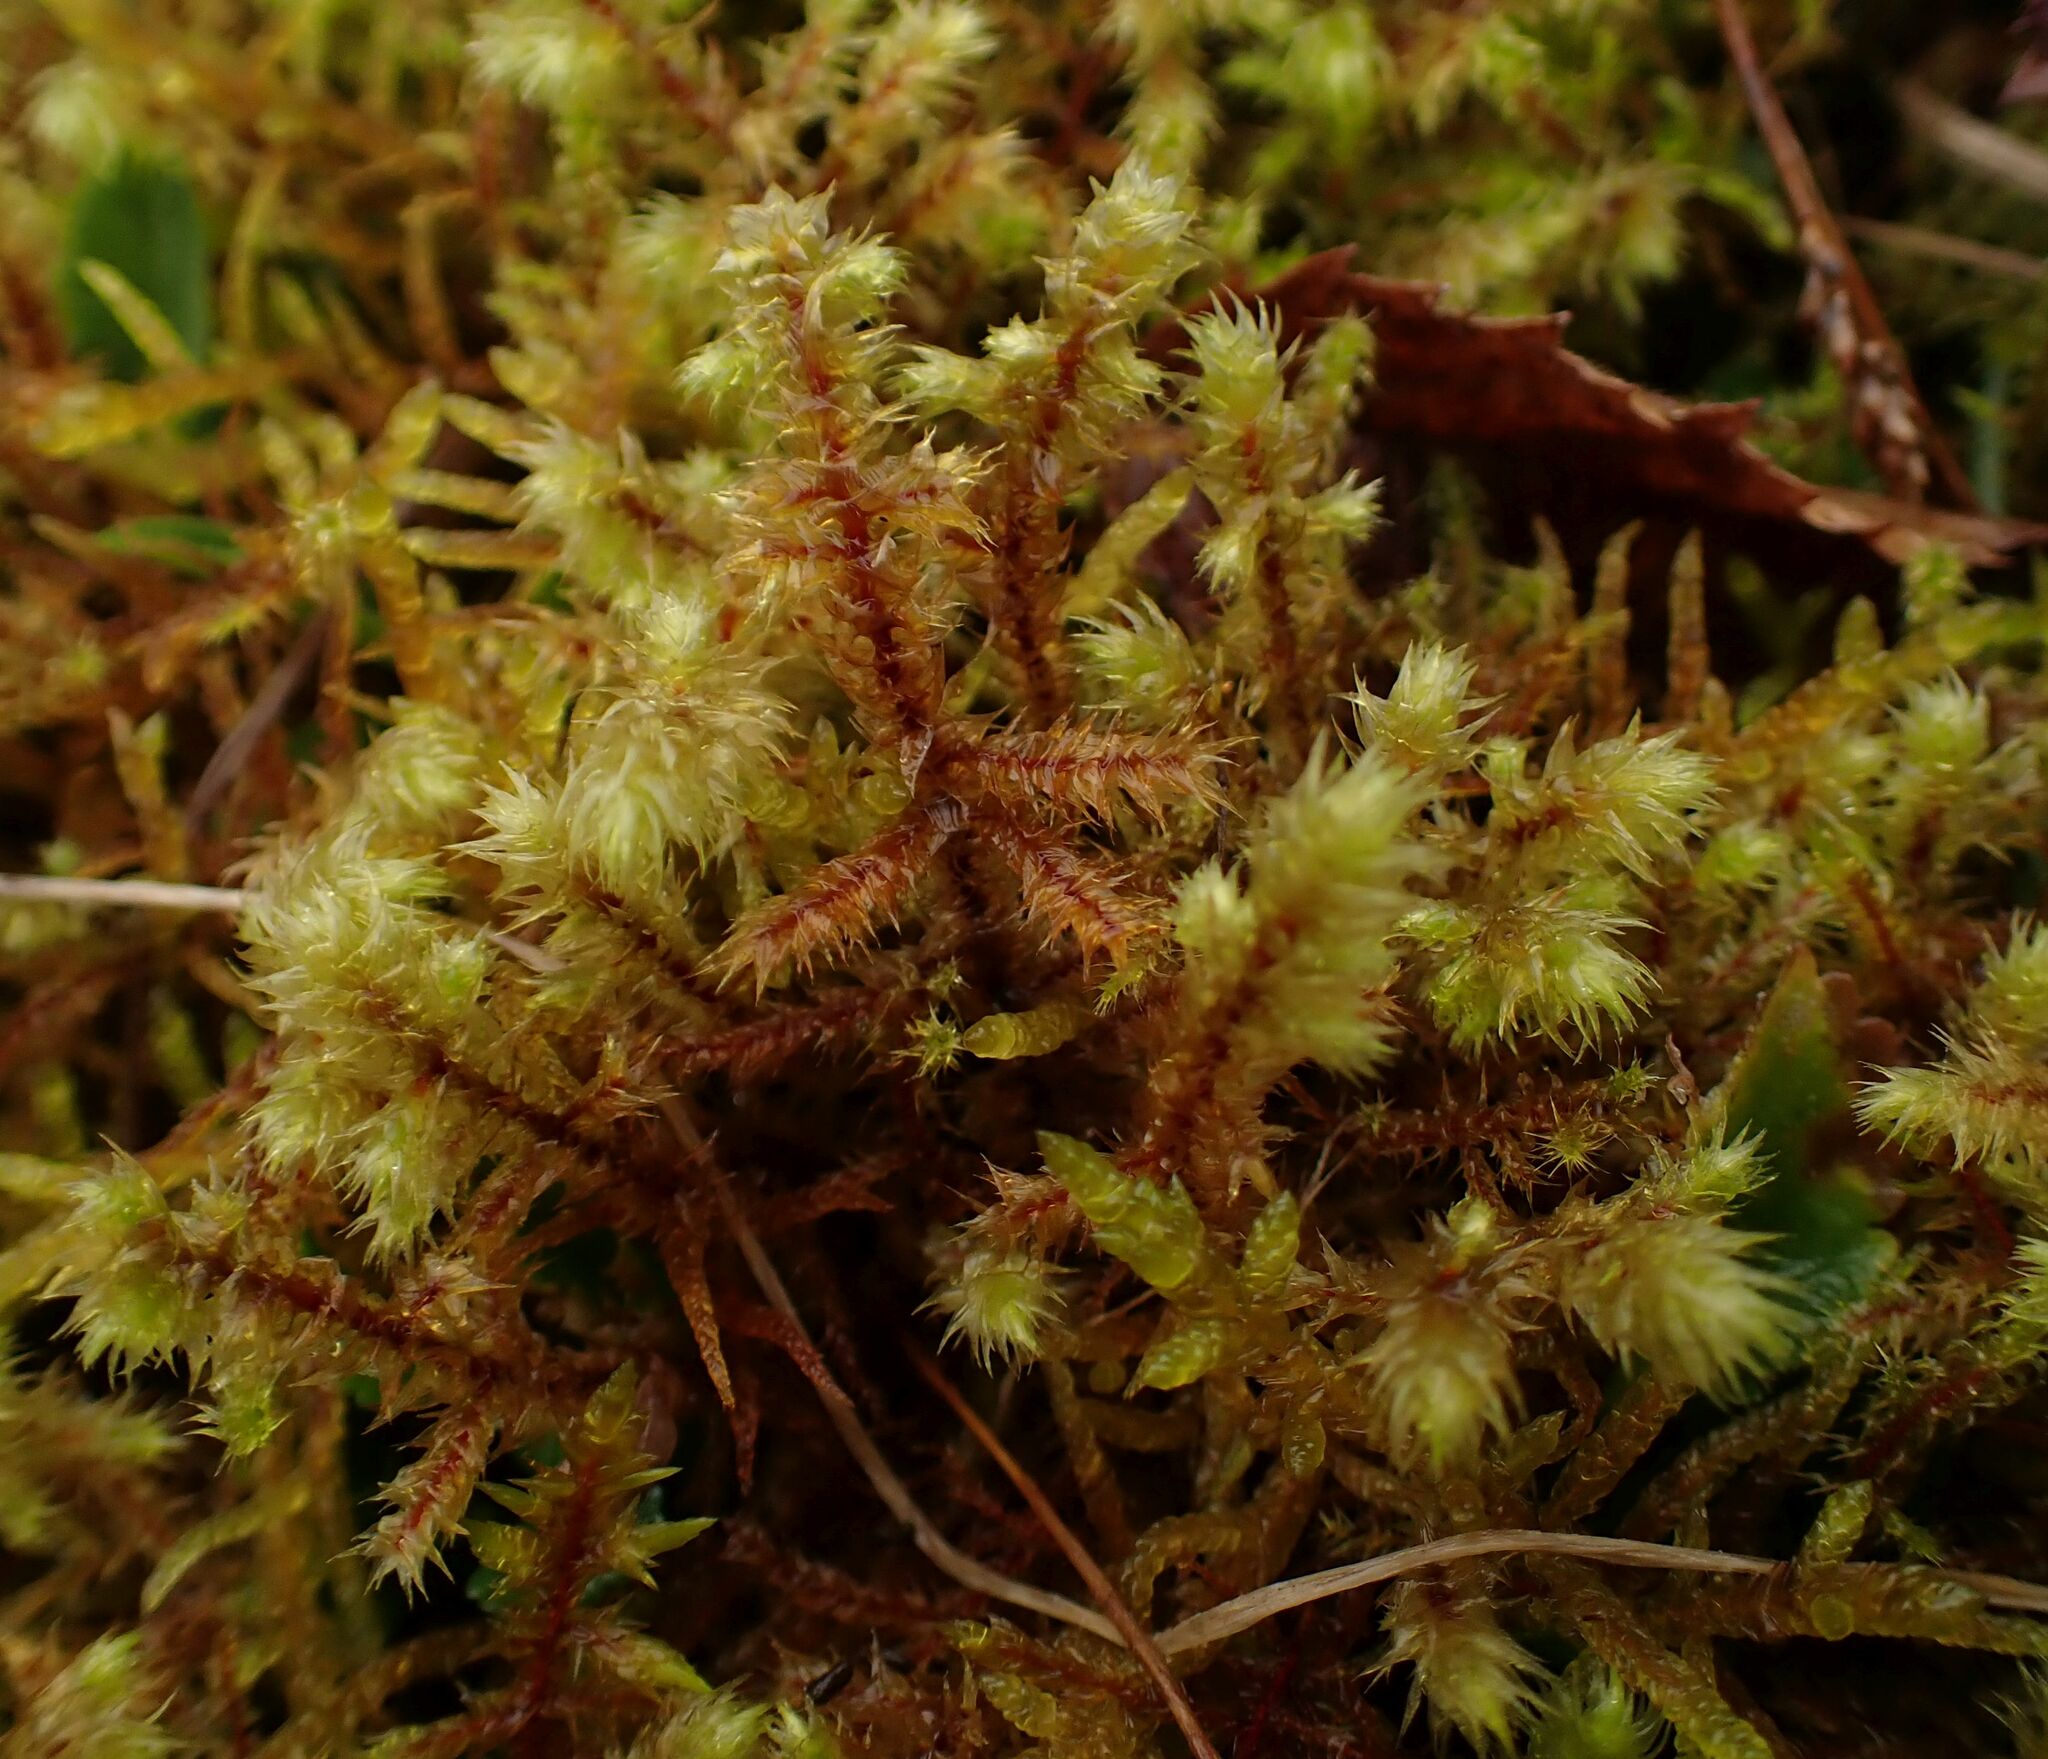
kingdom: Plantae
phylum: Bryophyta
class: Bryopsida
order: Hypnales
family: Hylocomiaceae
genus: Hylocomiadelphus
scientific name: Hylocomiadelphus triquetrus
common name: Rough goose neck moss
